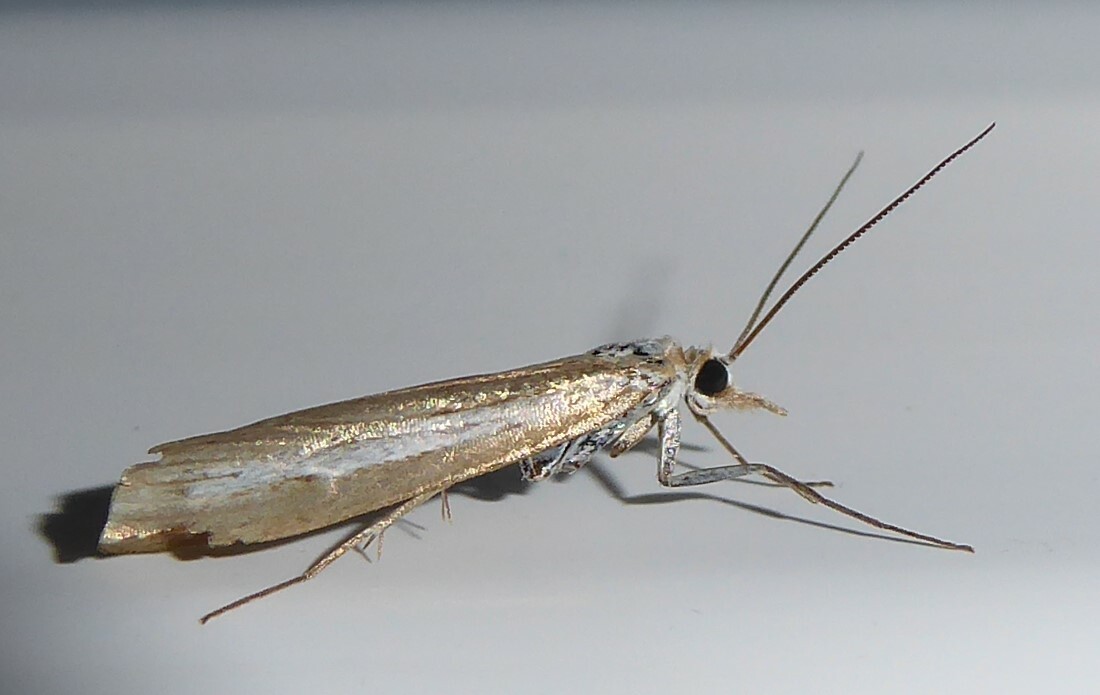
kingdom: Animalia
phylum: Arthropoda
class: Insecta
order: Lepidoptera
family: Crambidae
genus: Orocrambus
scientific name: Orocrambus vittellus
